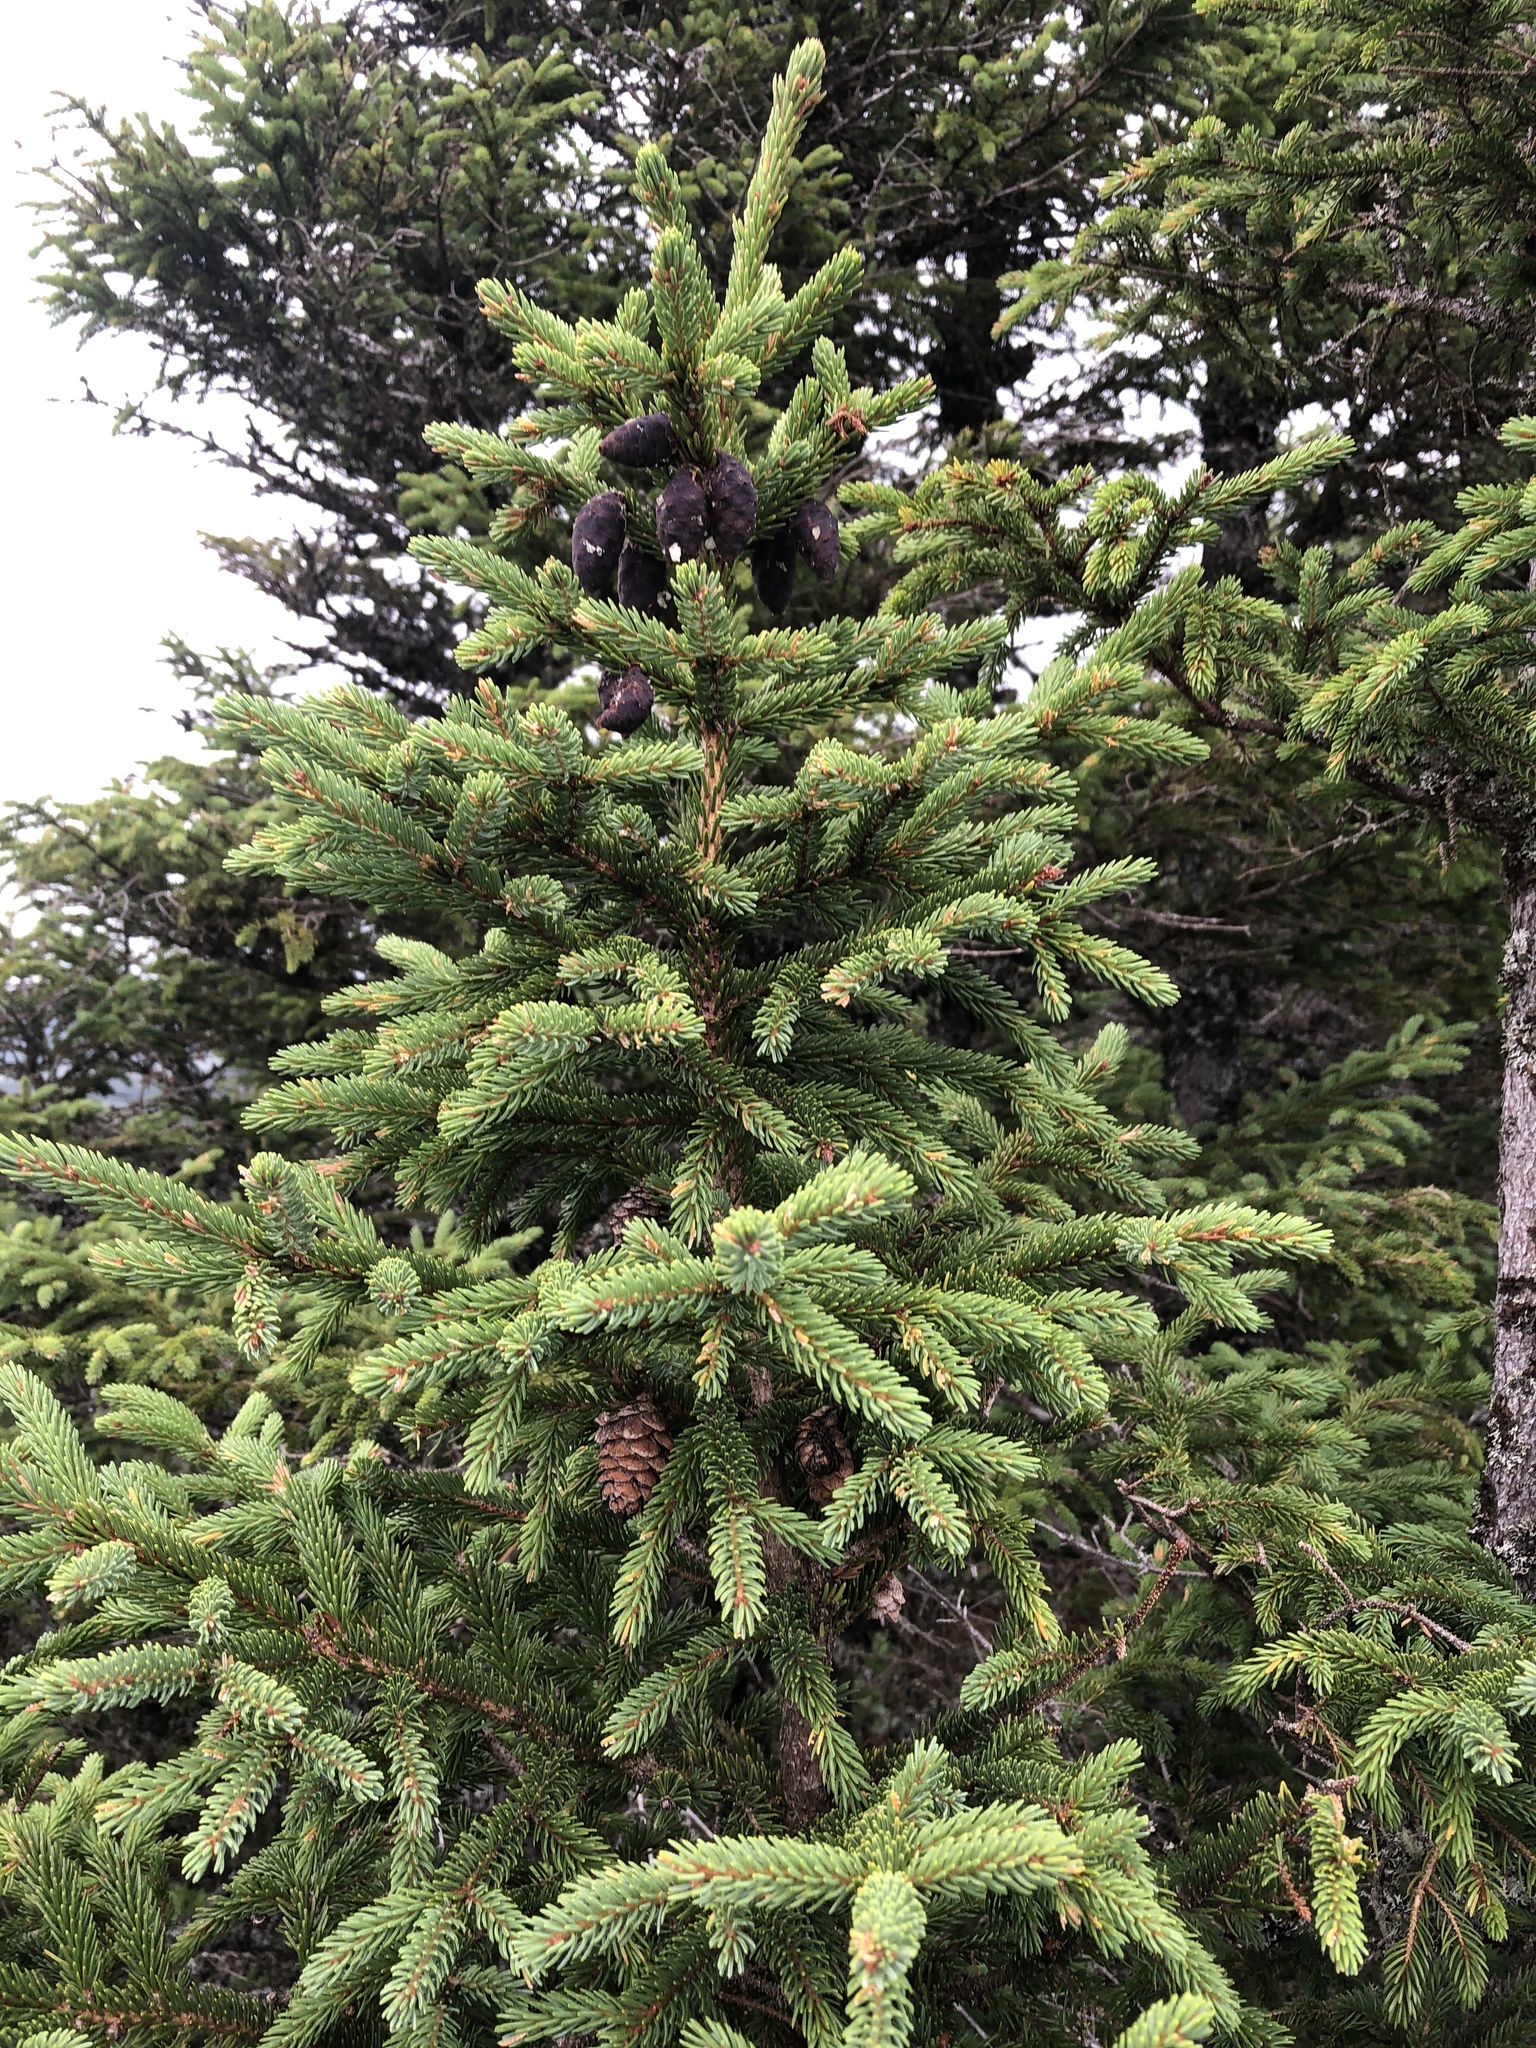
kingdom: Plantae
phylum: Tracheophyta
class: Pinopsida
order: Pinales
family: Pinaceae
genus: Picea
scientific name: Picea mariana
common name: Black spruce
